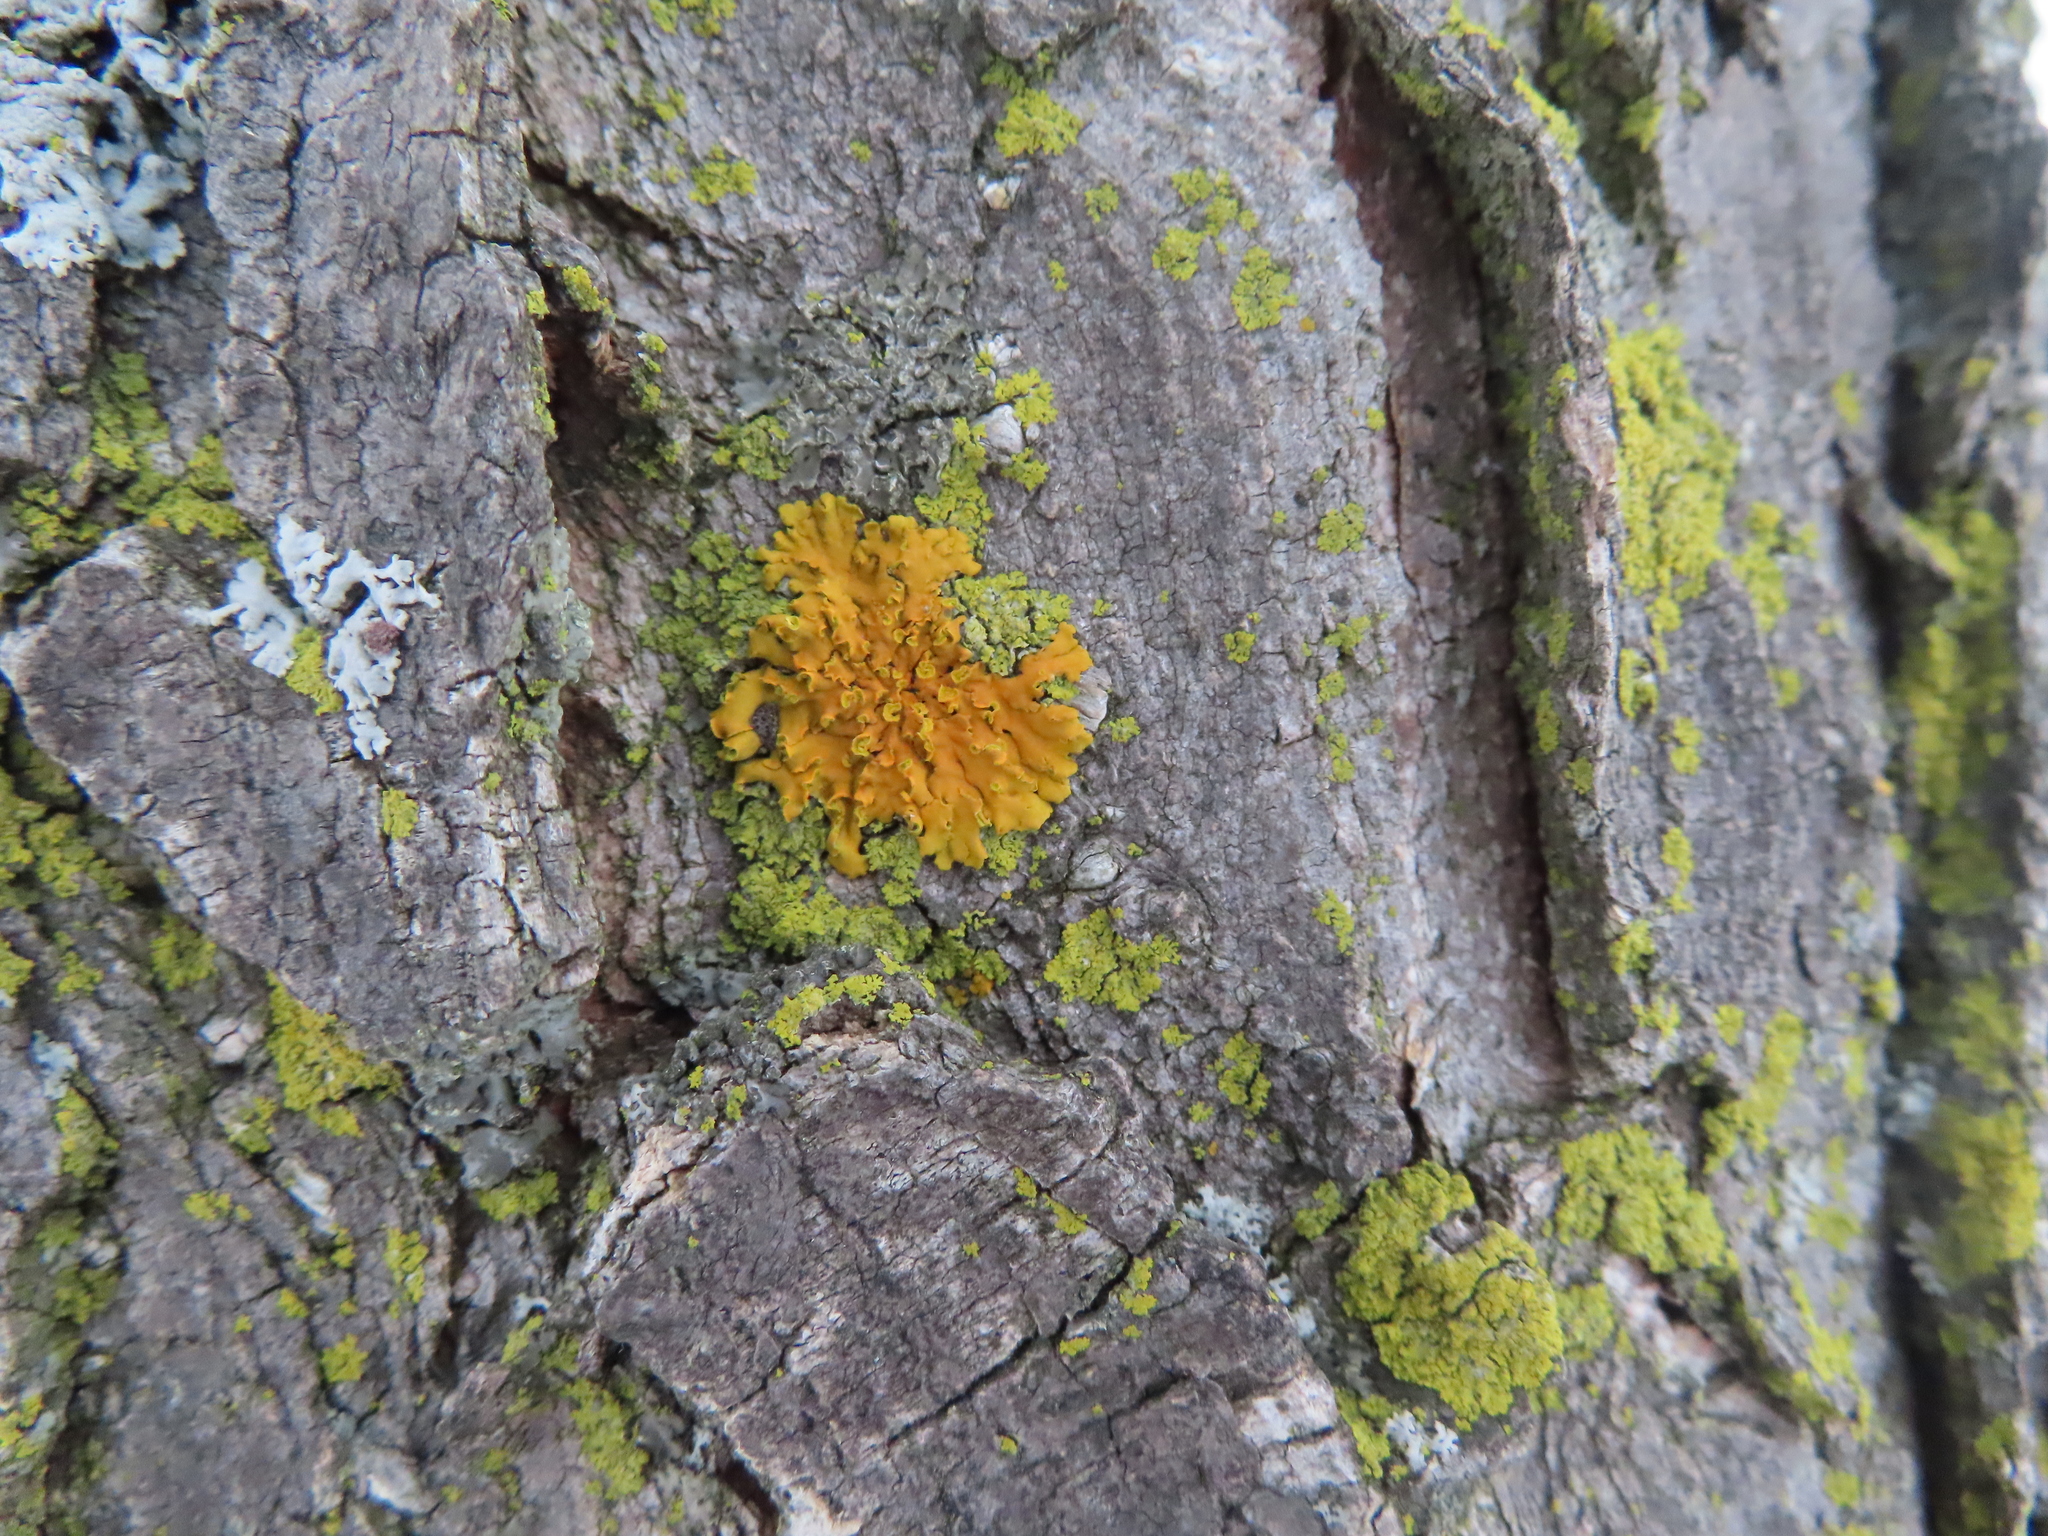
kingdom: Fungi
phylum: Ascomycota
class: Lecanoromycetes
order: Teloschistales
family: Teloschistaceae
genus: Oxneria
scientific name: Oxneria fallax
